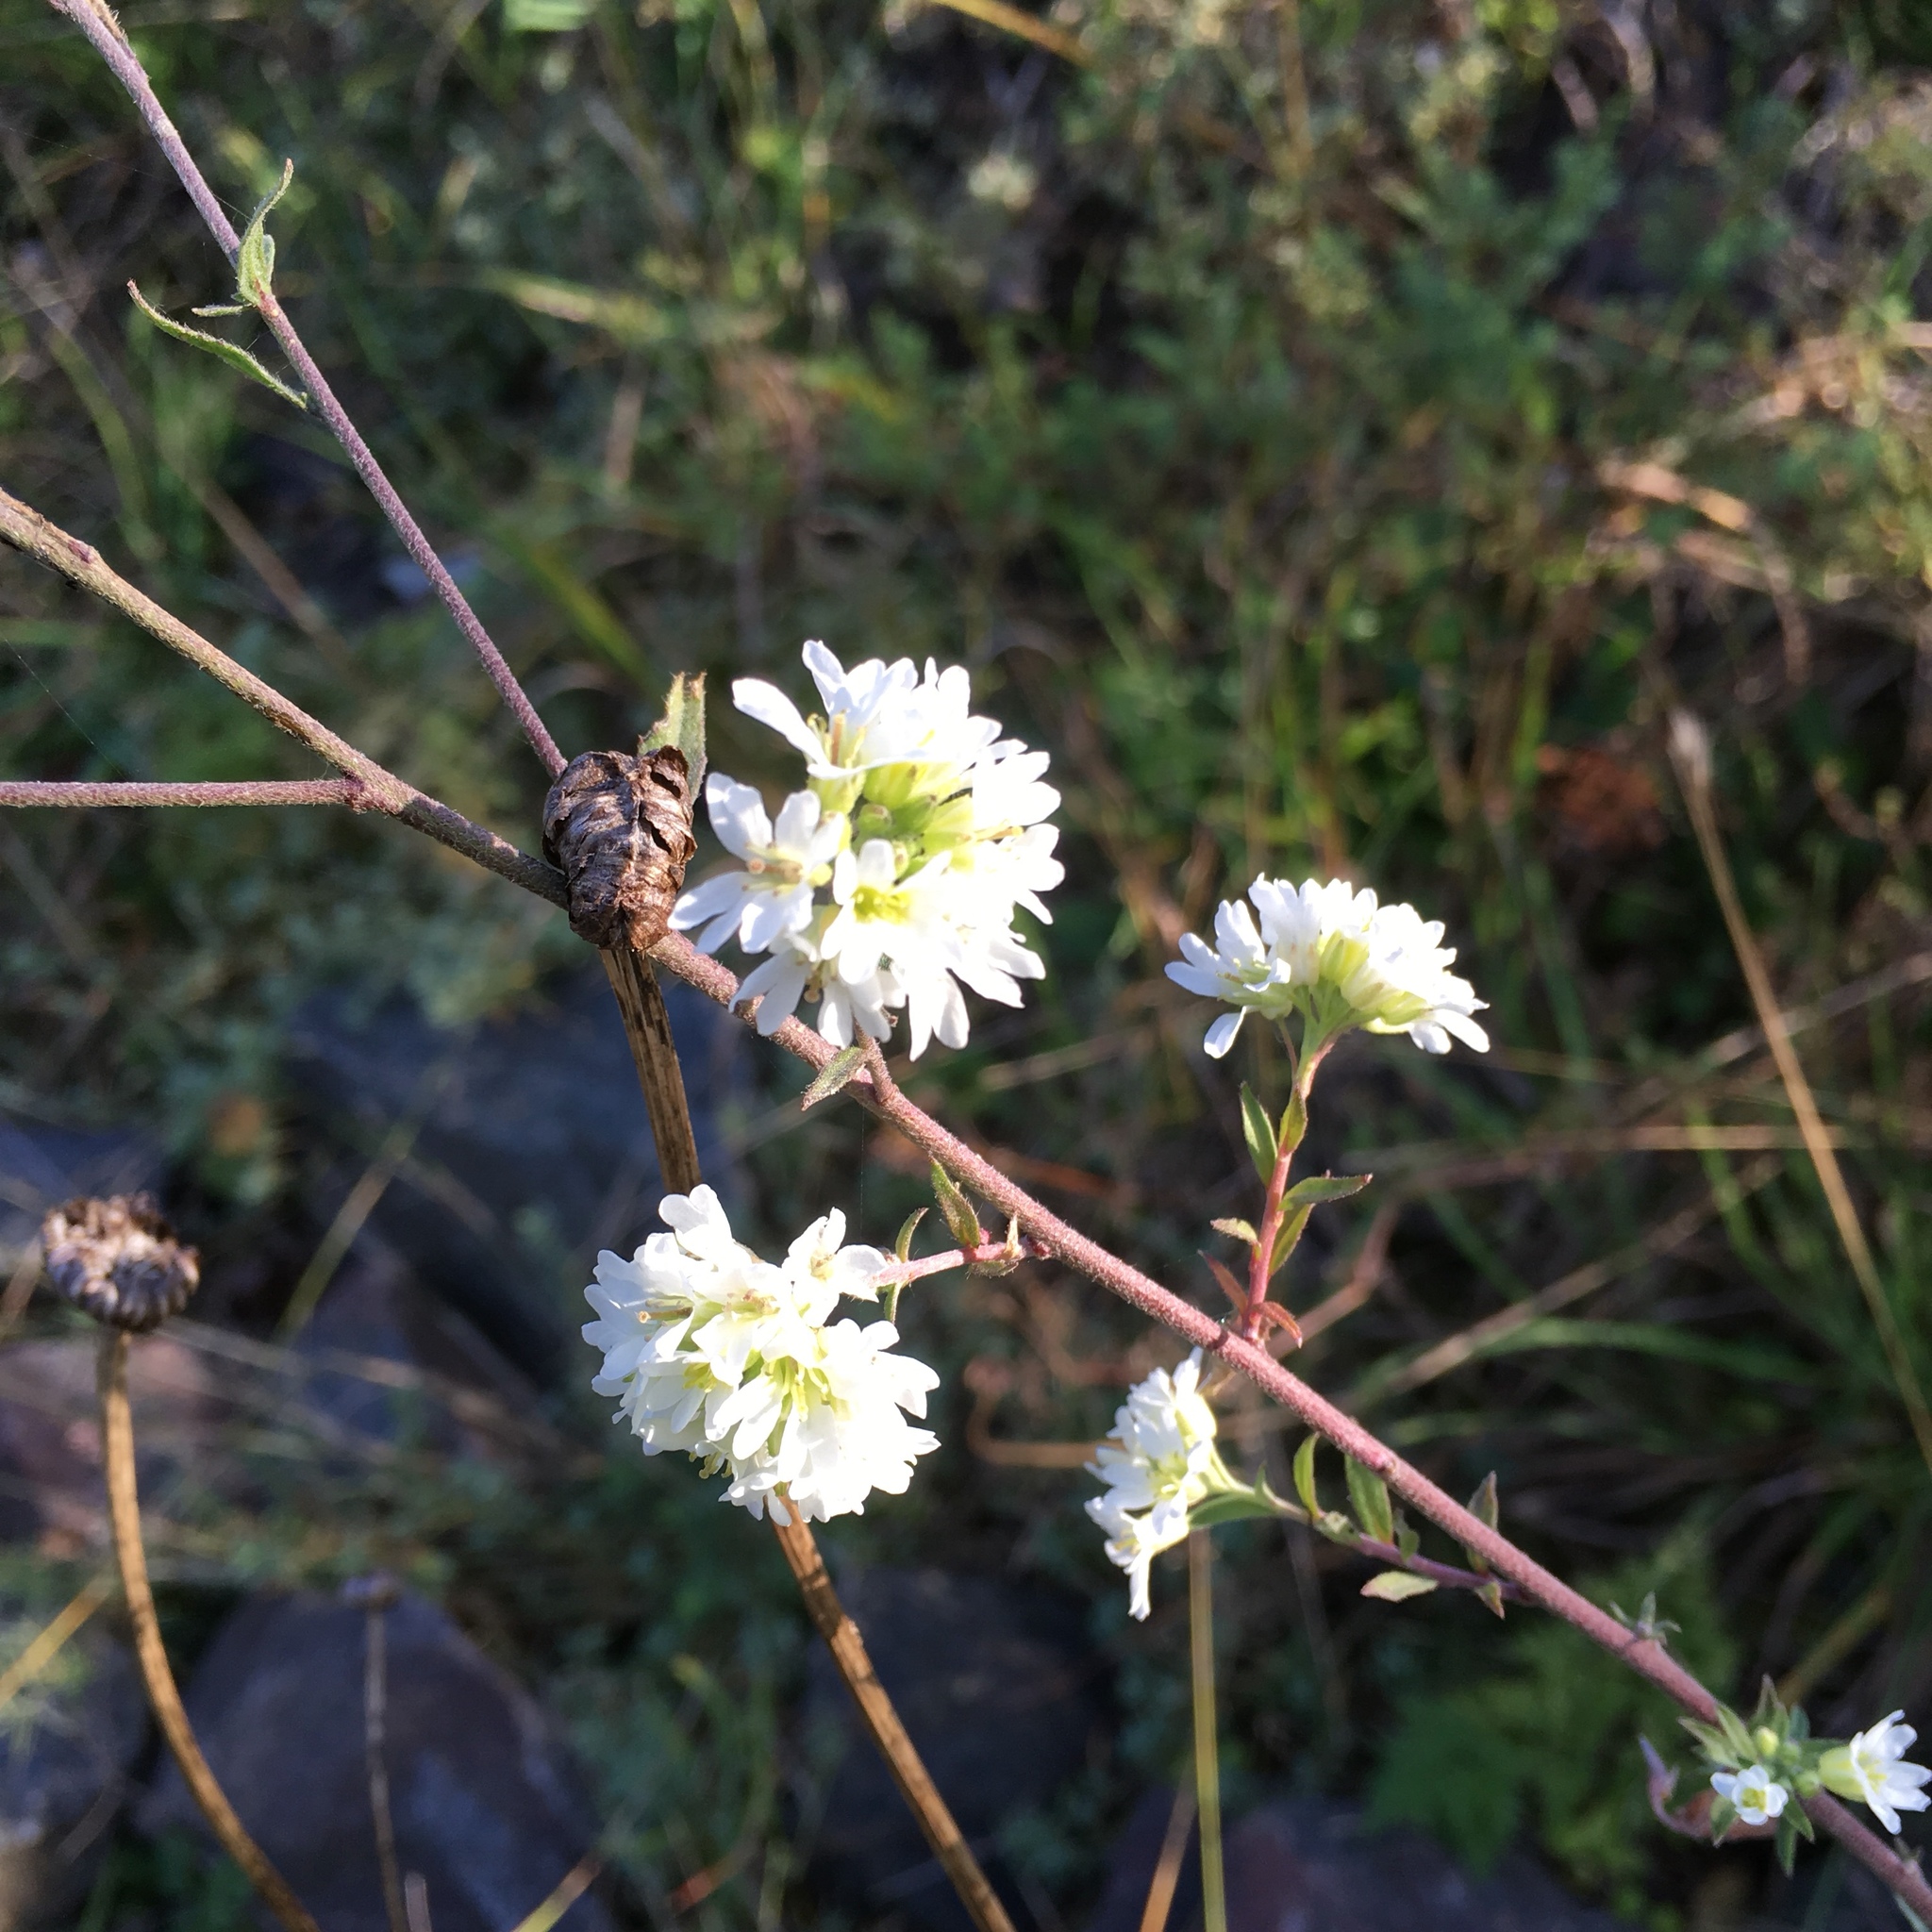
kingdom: Plantae
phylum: Tracheophyta
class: Magnoliopsida
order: Brassicales
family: Brassicaceae
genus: Berteroa
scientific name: Berteroa incana
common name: Hoary alison
